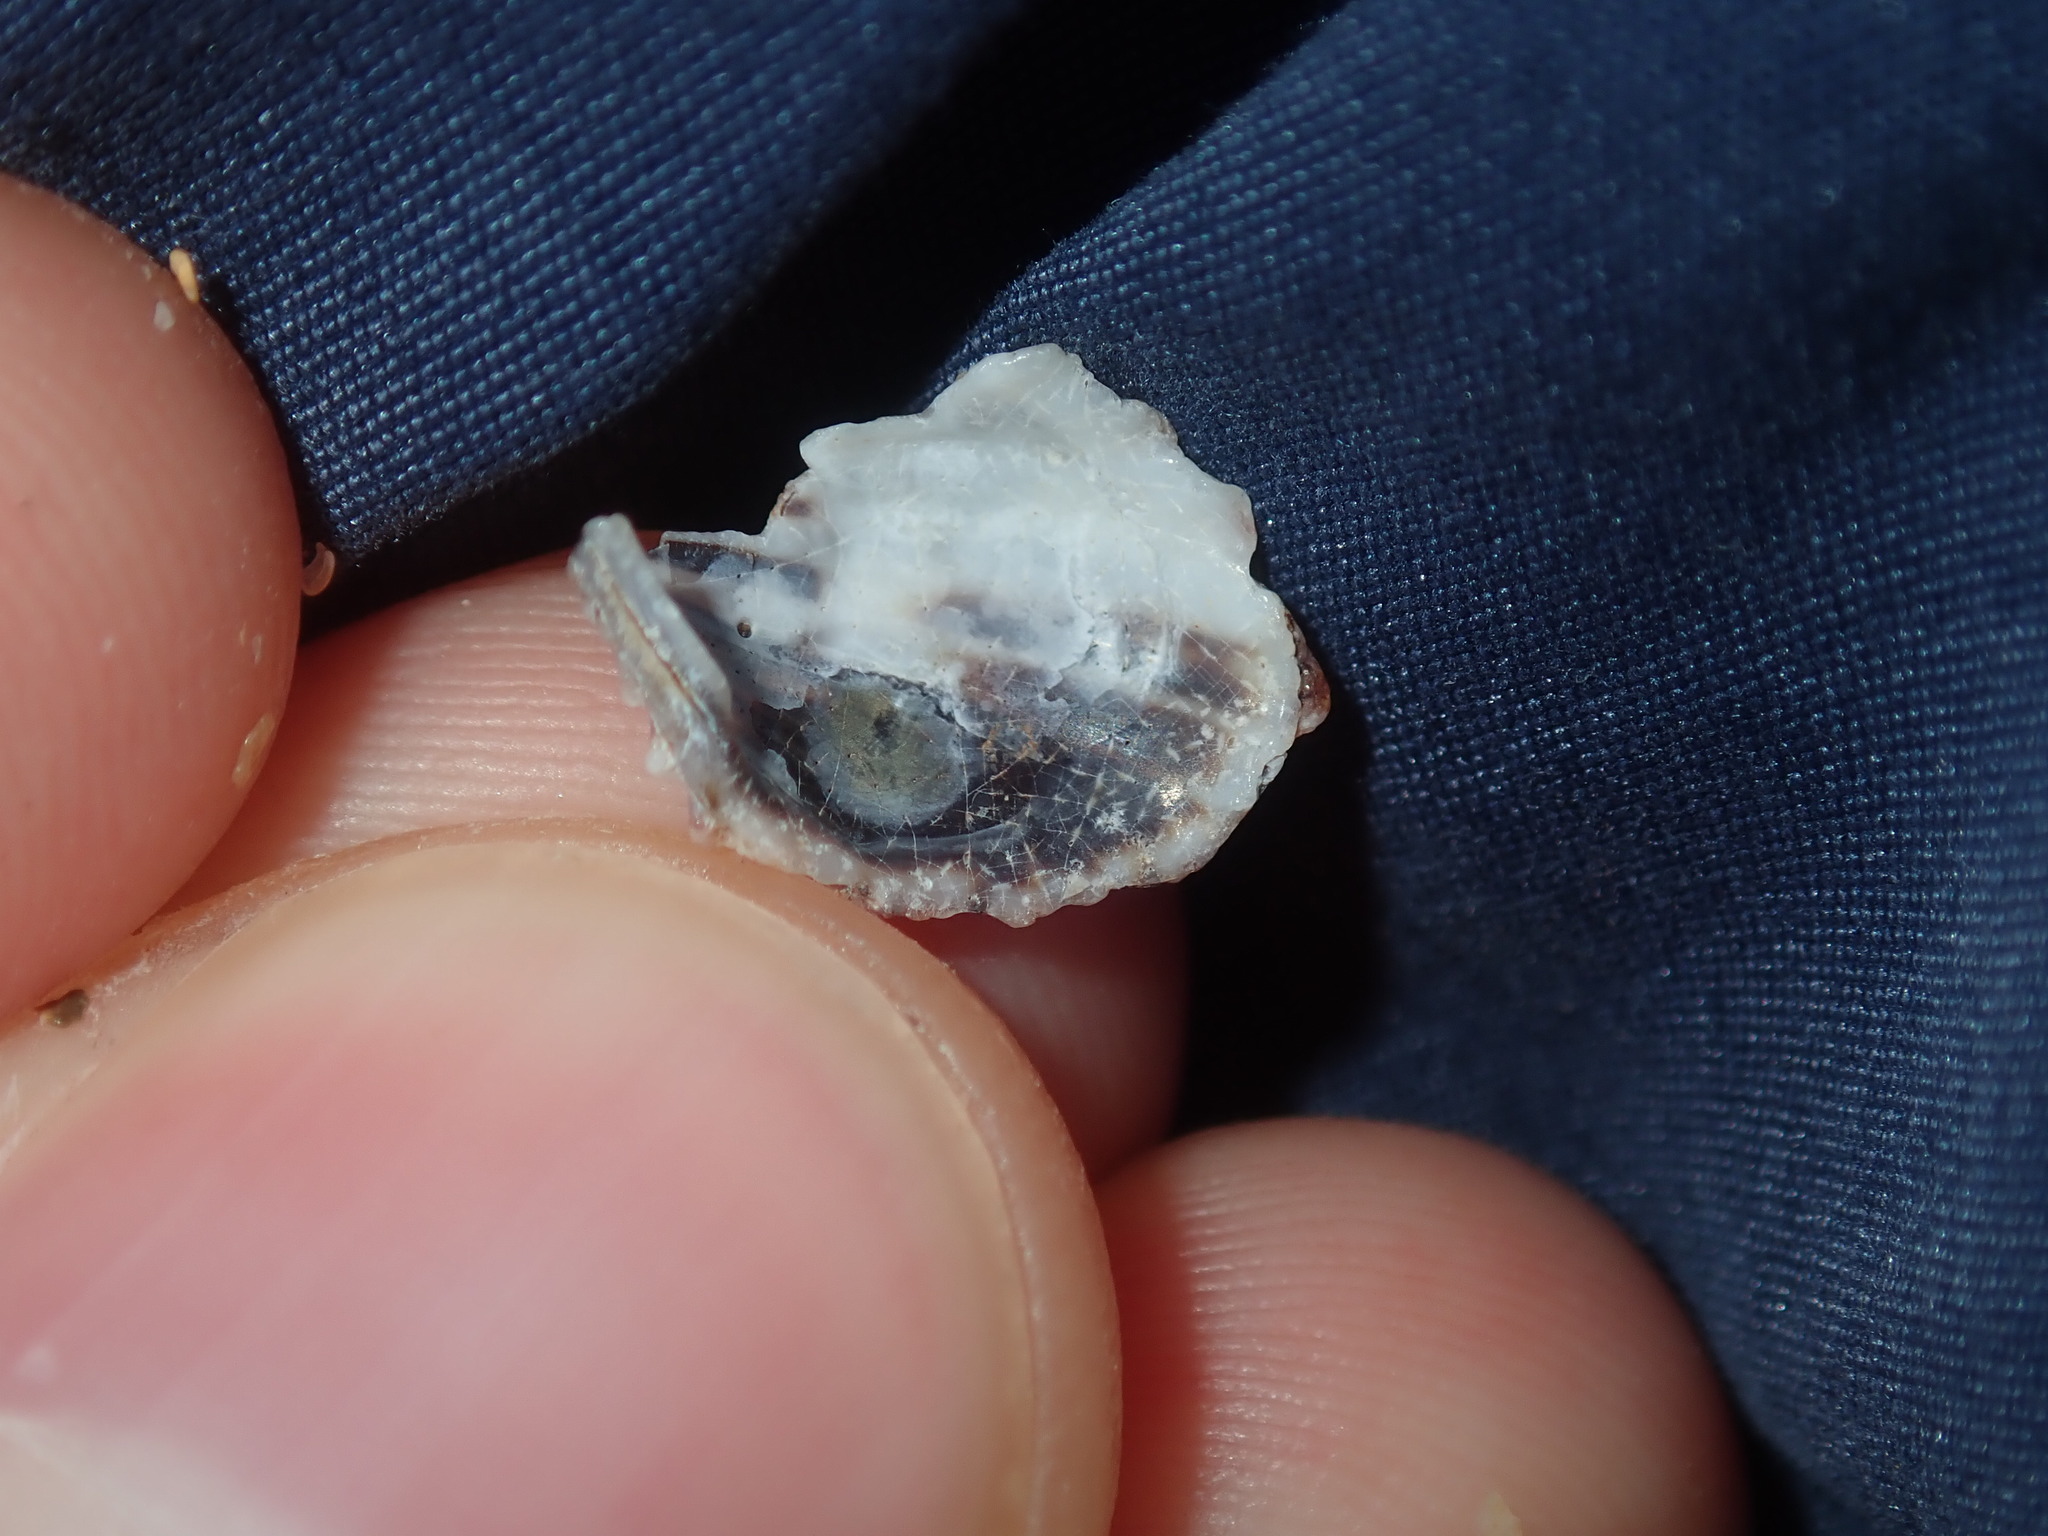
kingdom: Animalia
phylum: Mollusca
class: Bivalvia
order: Carditida
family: Carditidae
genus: Cardita
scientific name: Cardita aviculina
